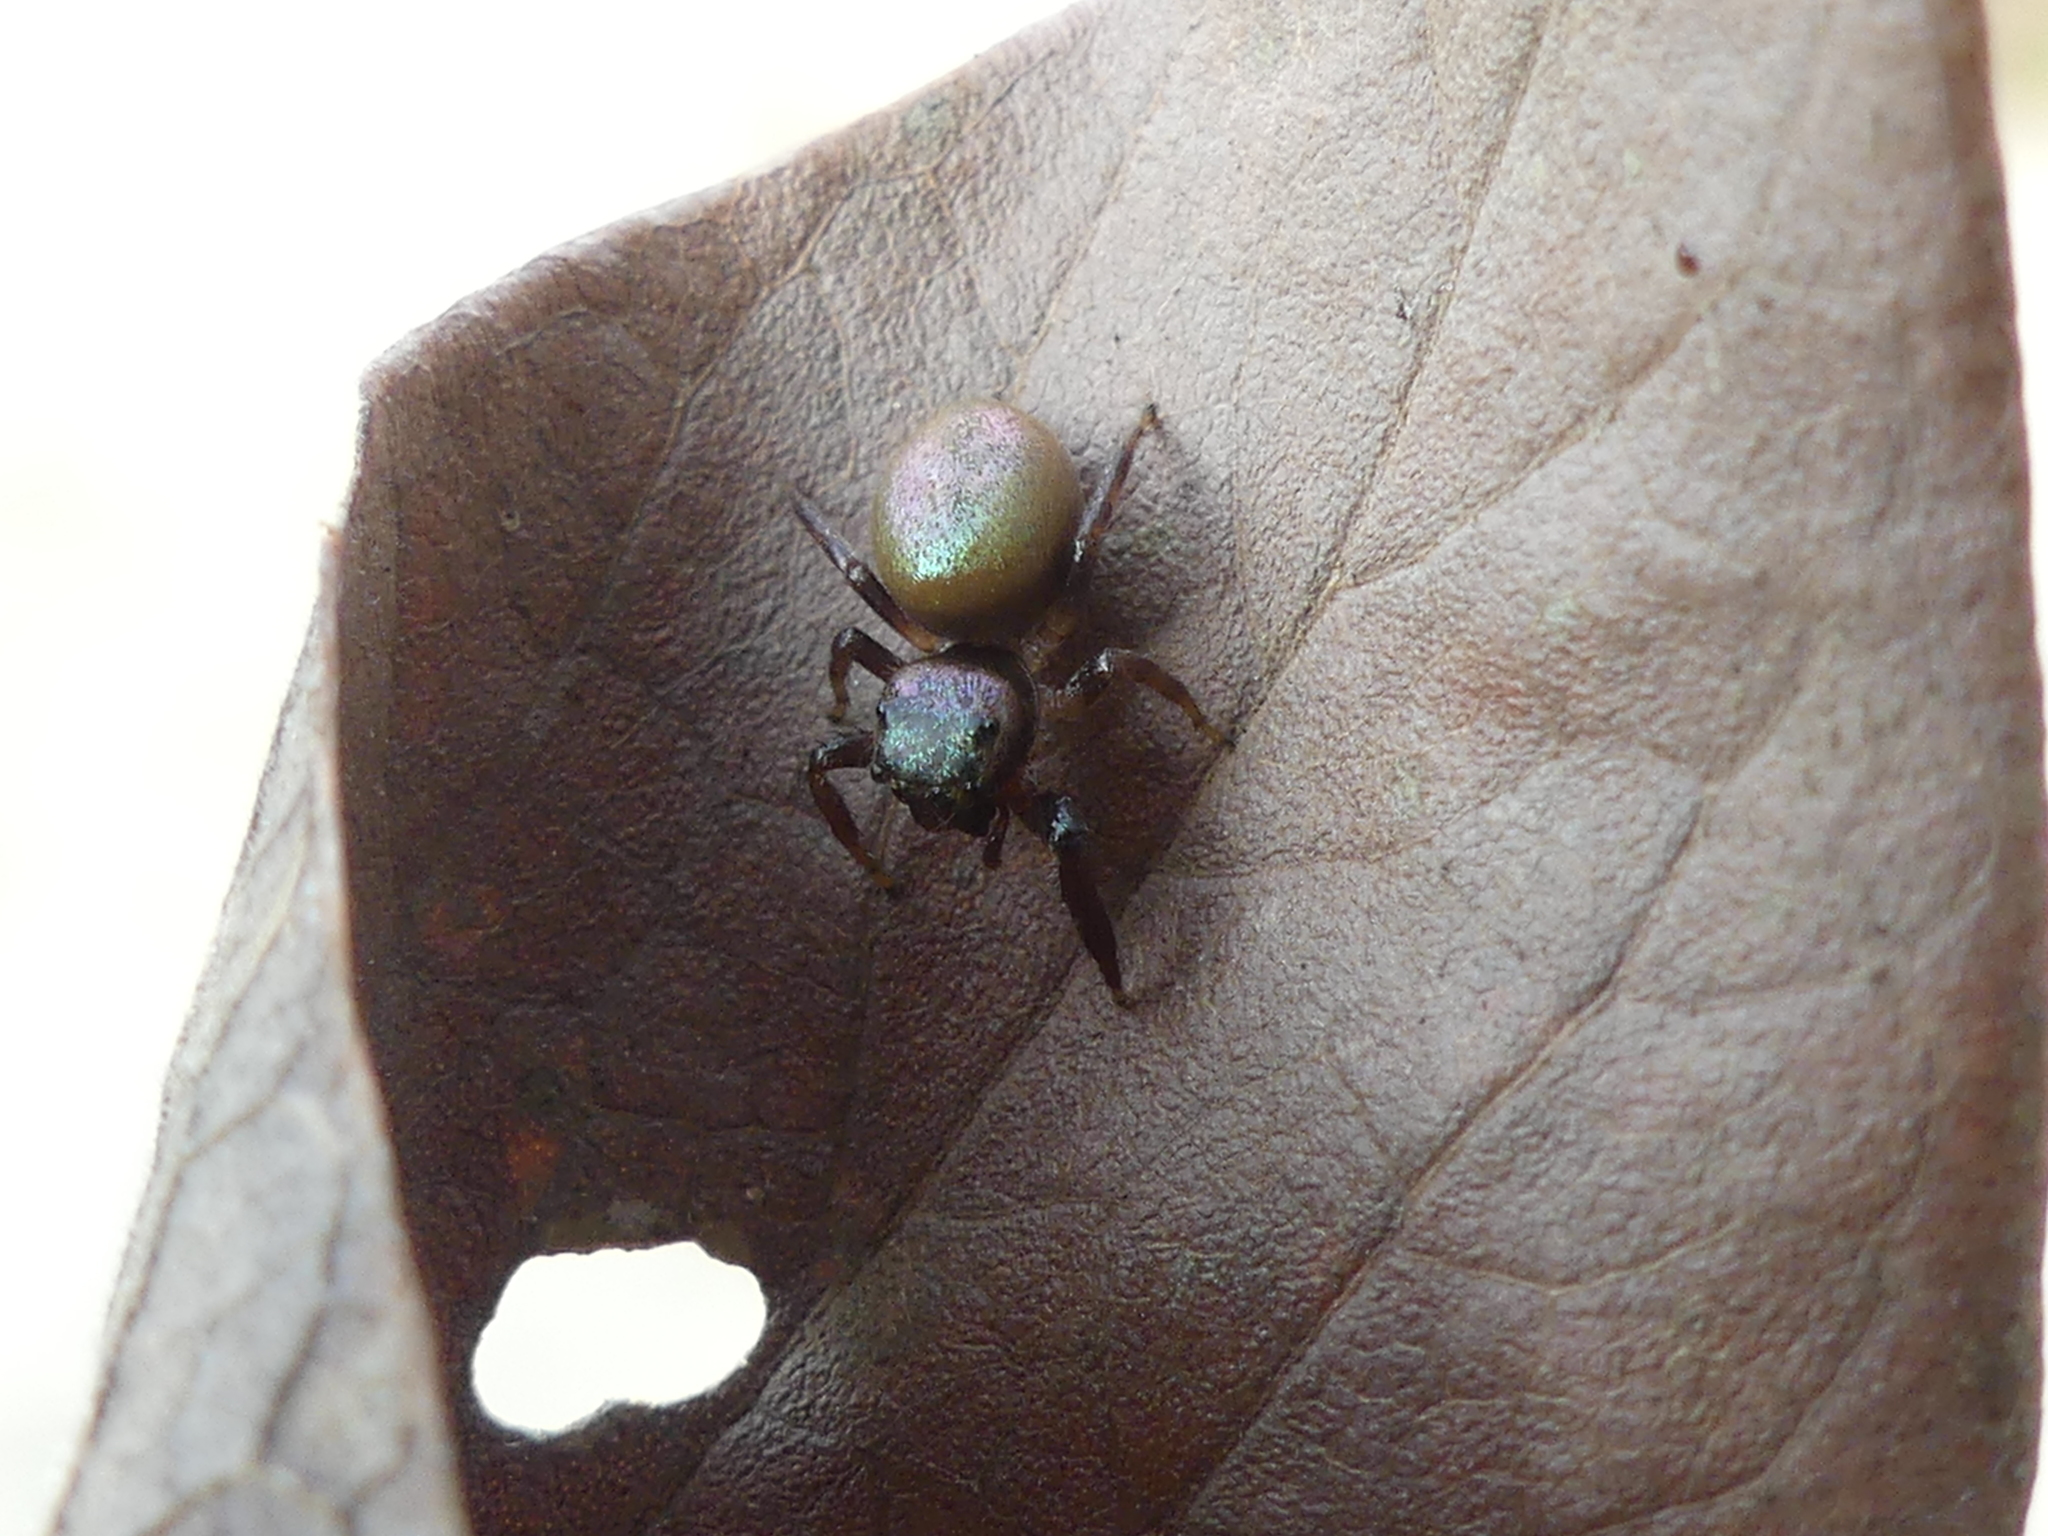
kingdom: Animalia
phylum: Arthropoda
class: Arachnida
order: Araneae
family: Salticidae
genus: Messua
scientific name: Messua limbata
